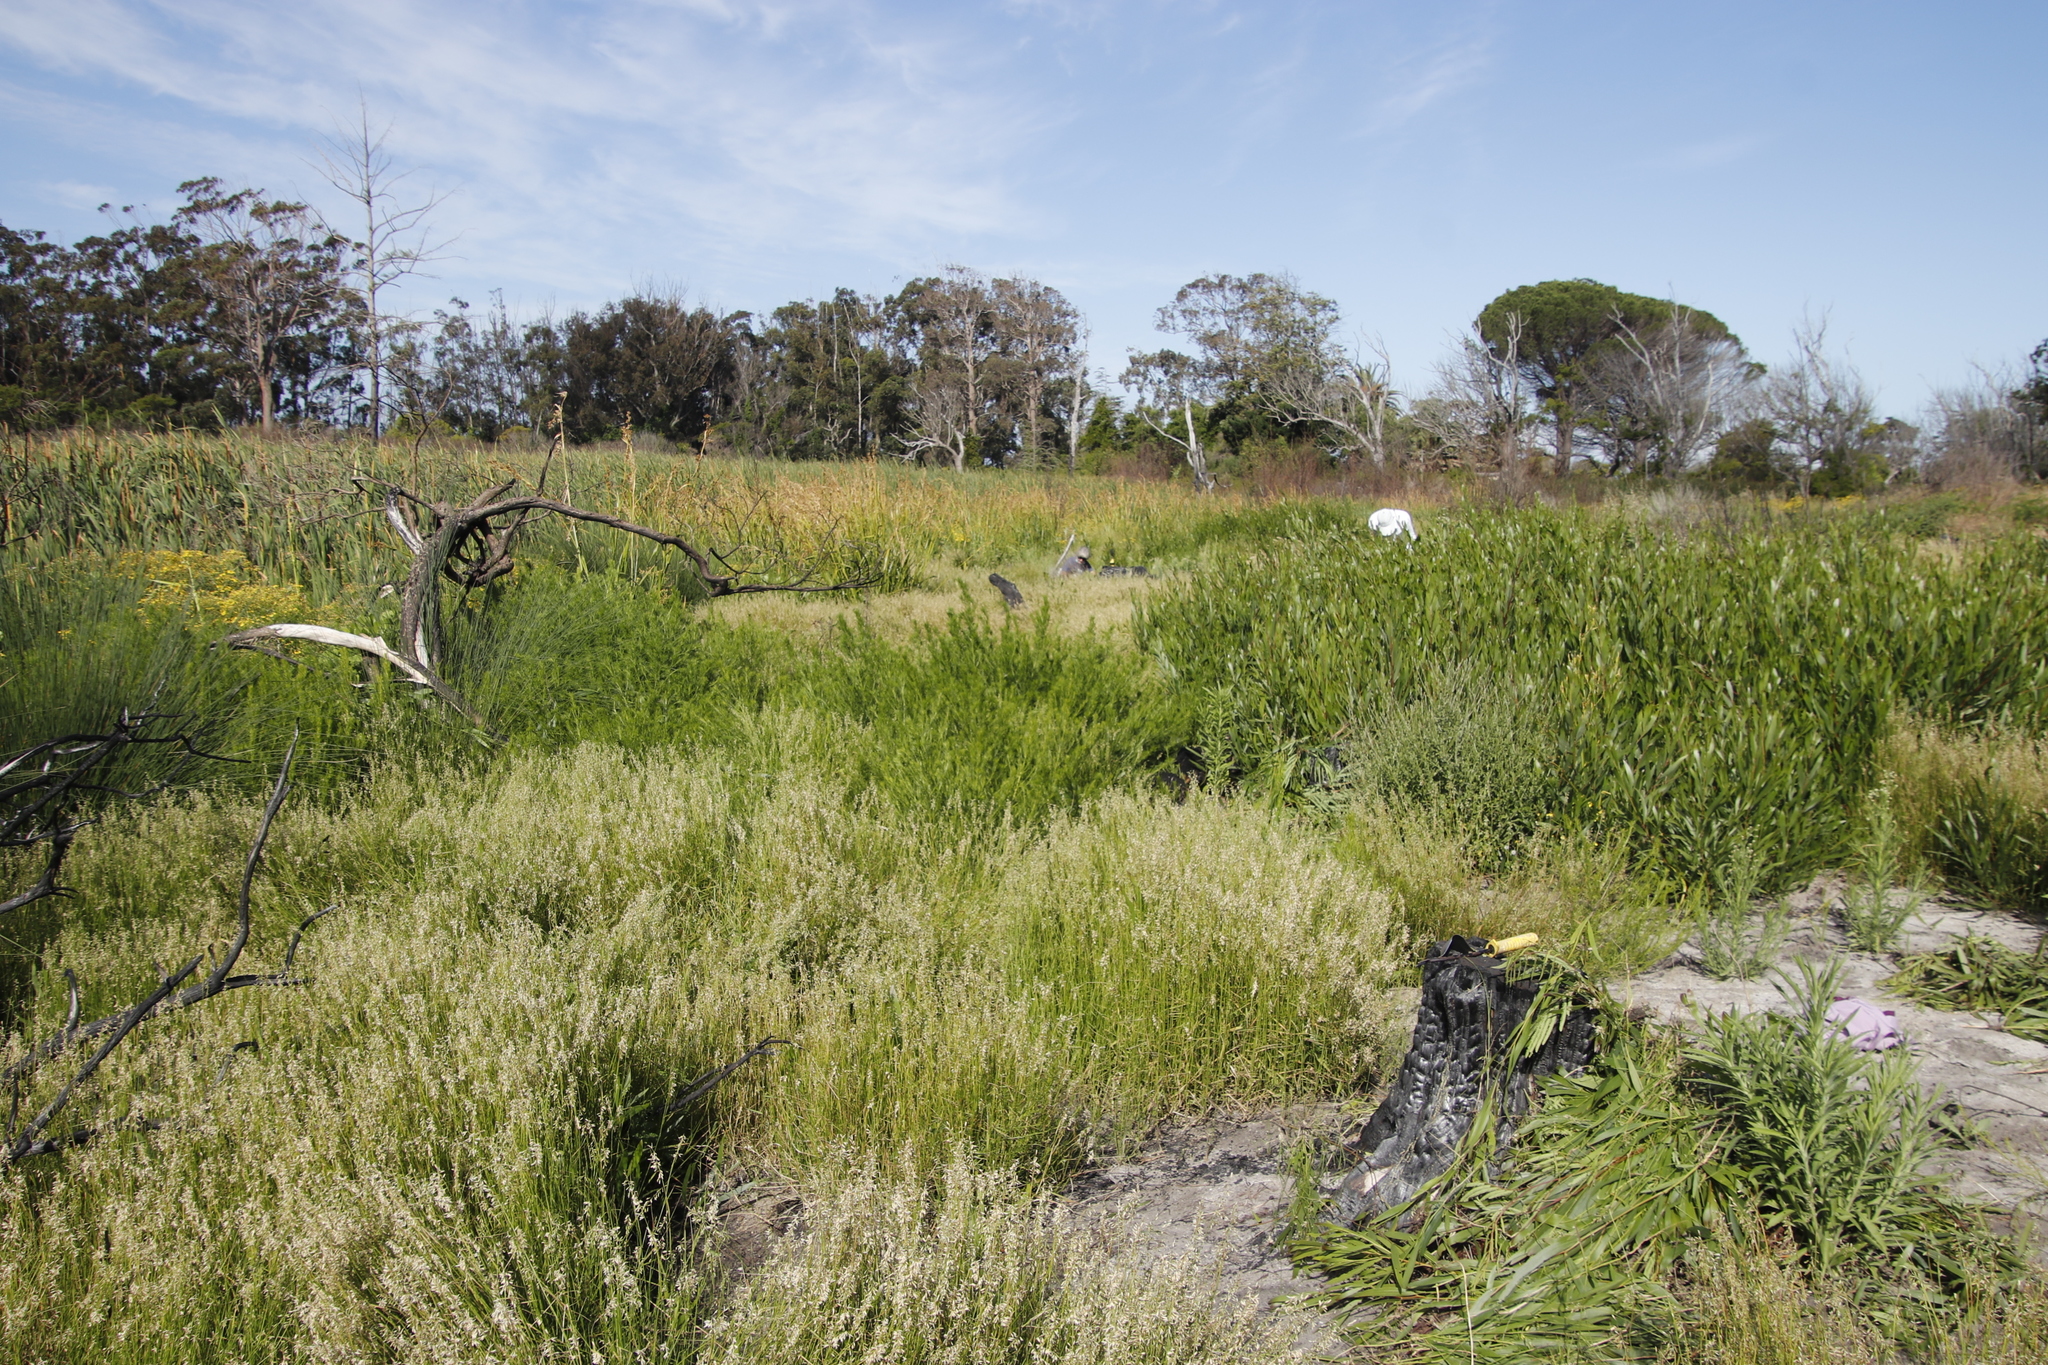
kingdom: Plantae
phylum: Tracheophyta
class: Magnoliopsida
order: Fabales
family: Fabaceae
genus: Psoralea
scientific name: Psoralea pinnata
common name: African scurfpea
